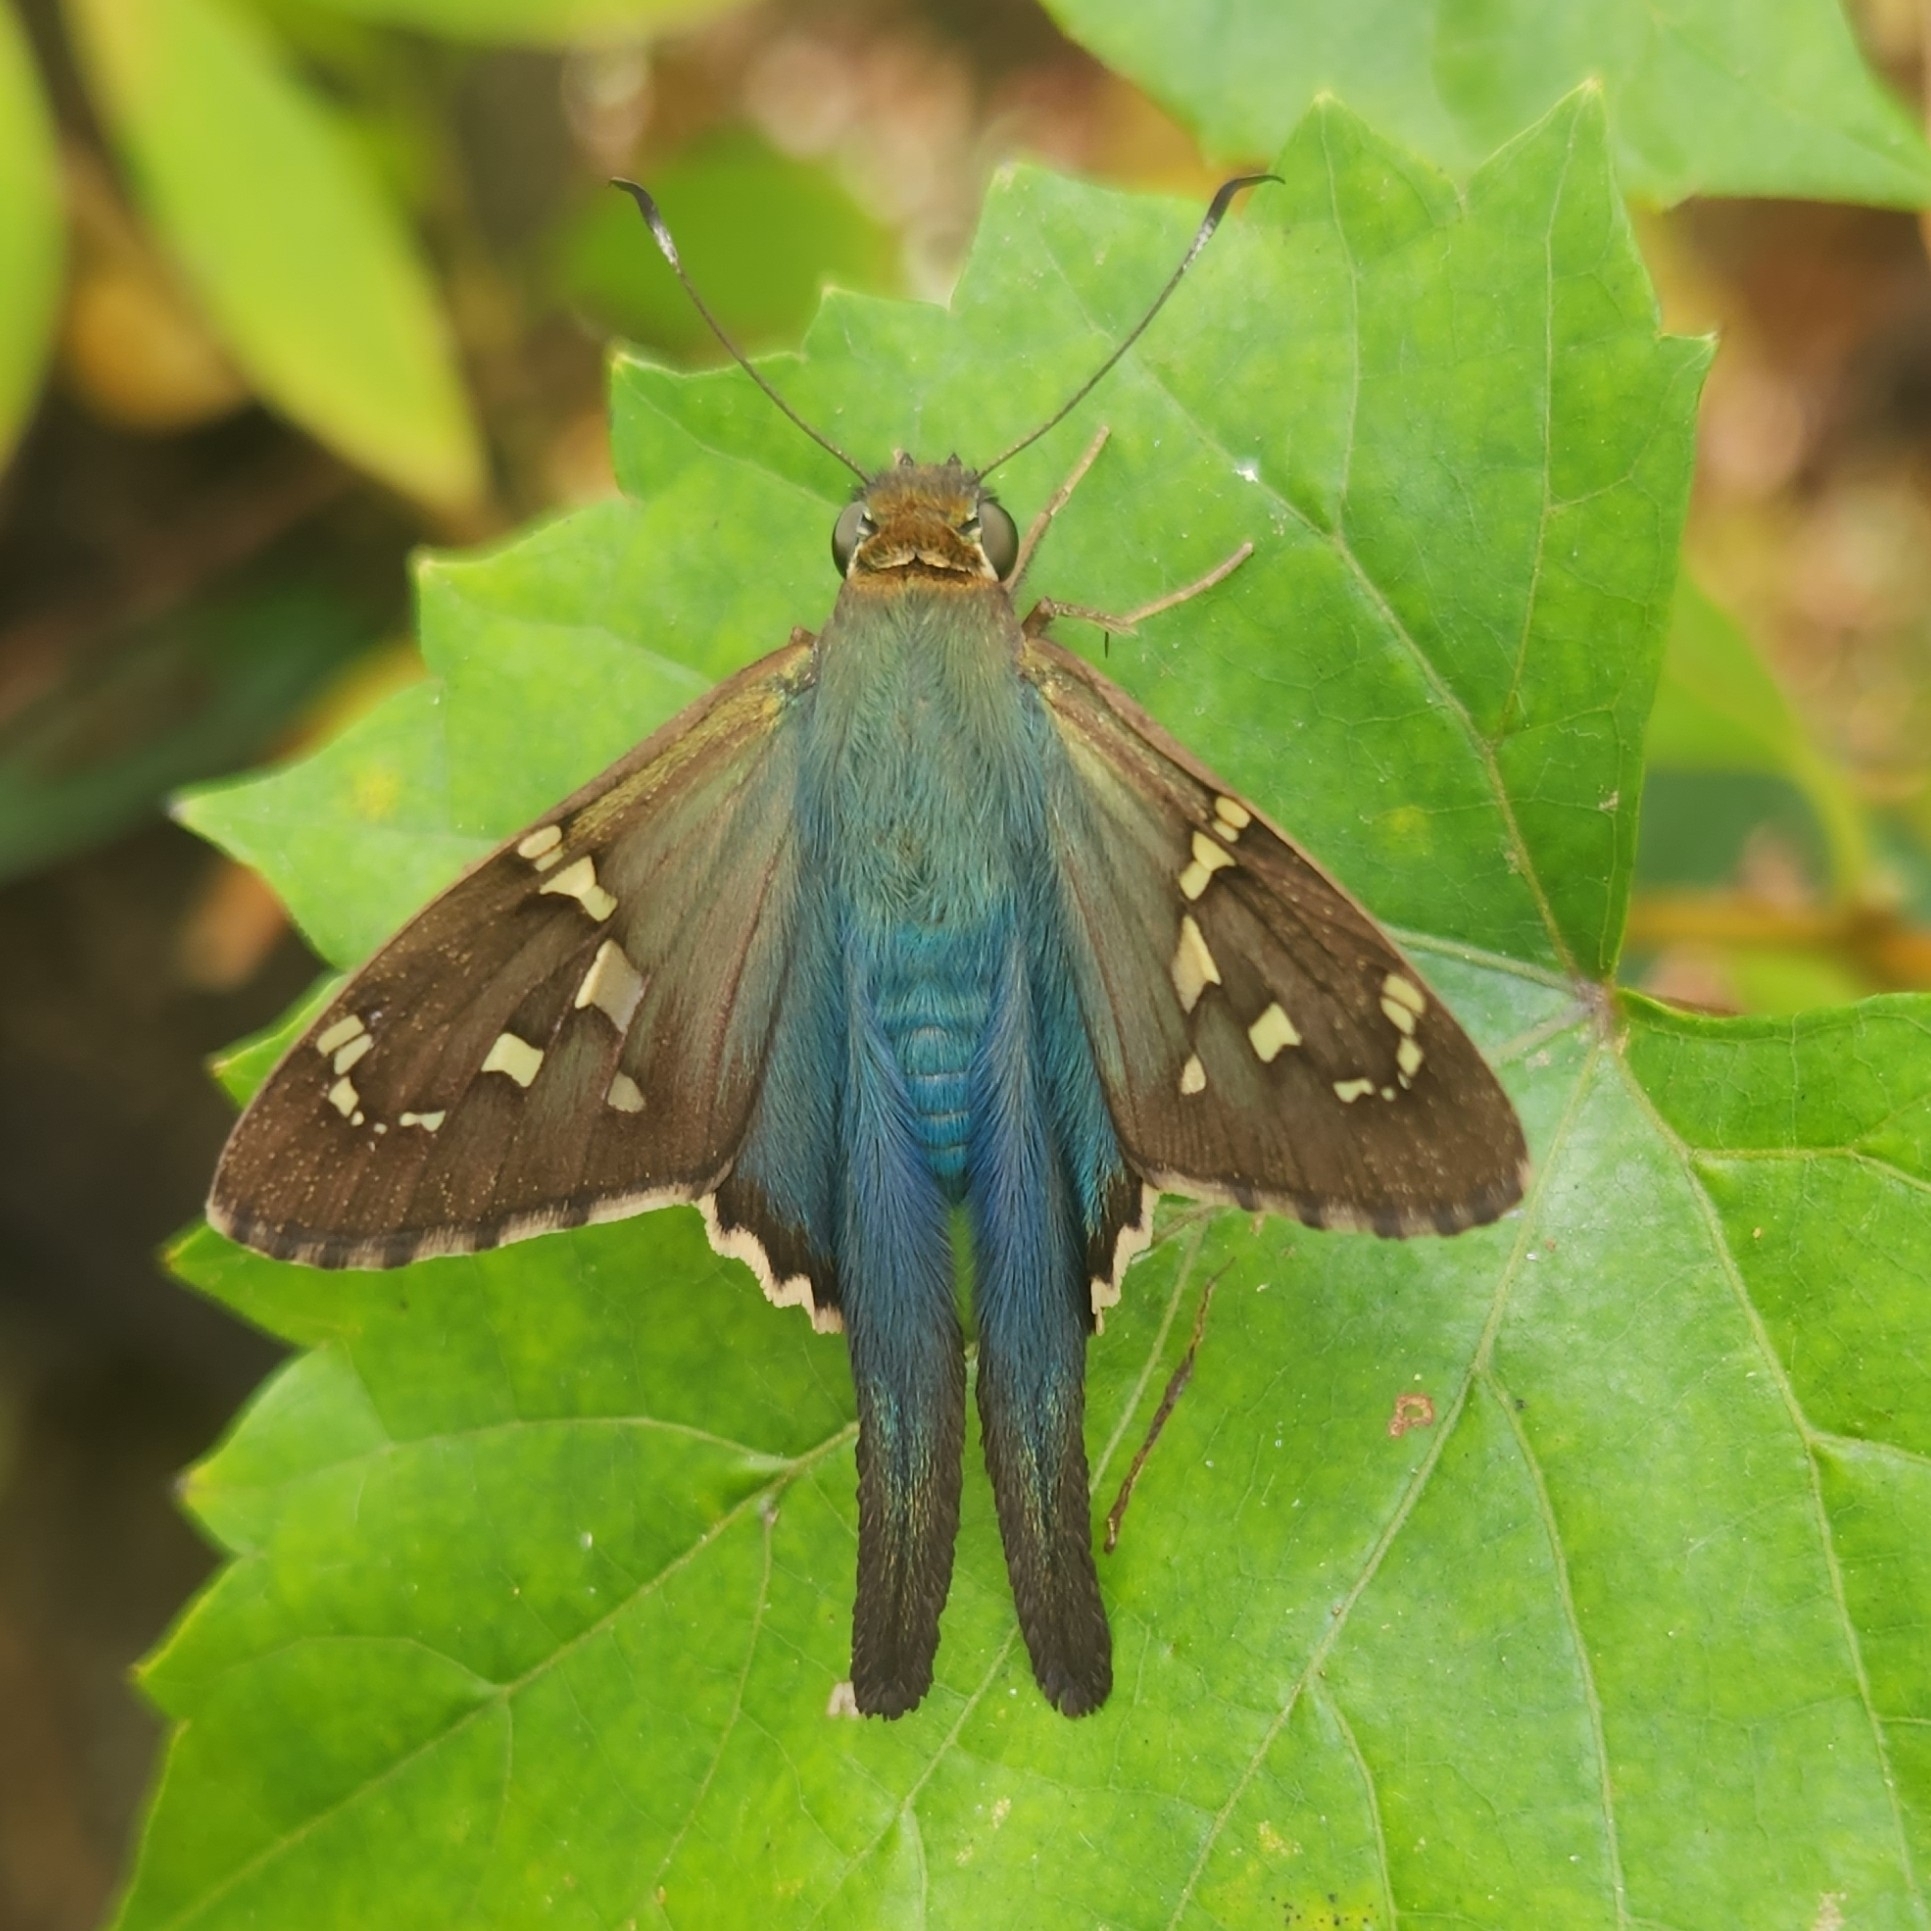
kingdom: Animalia
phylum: Arthropoda
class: Insecta
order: Lepidoptera
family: Hesperiidae
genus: Urbanus
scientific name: Urbanus proteus
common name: Long-tailed skipper
